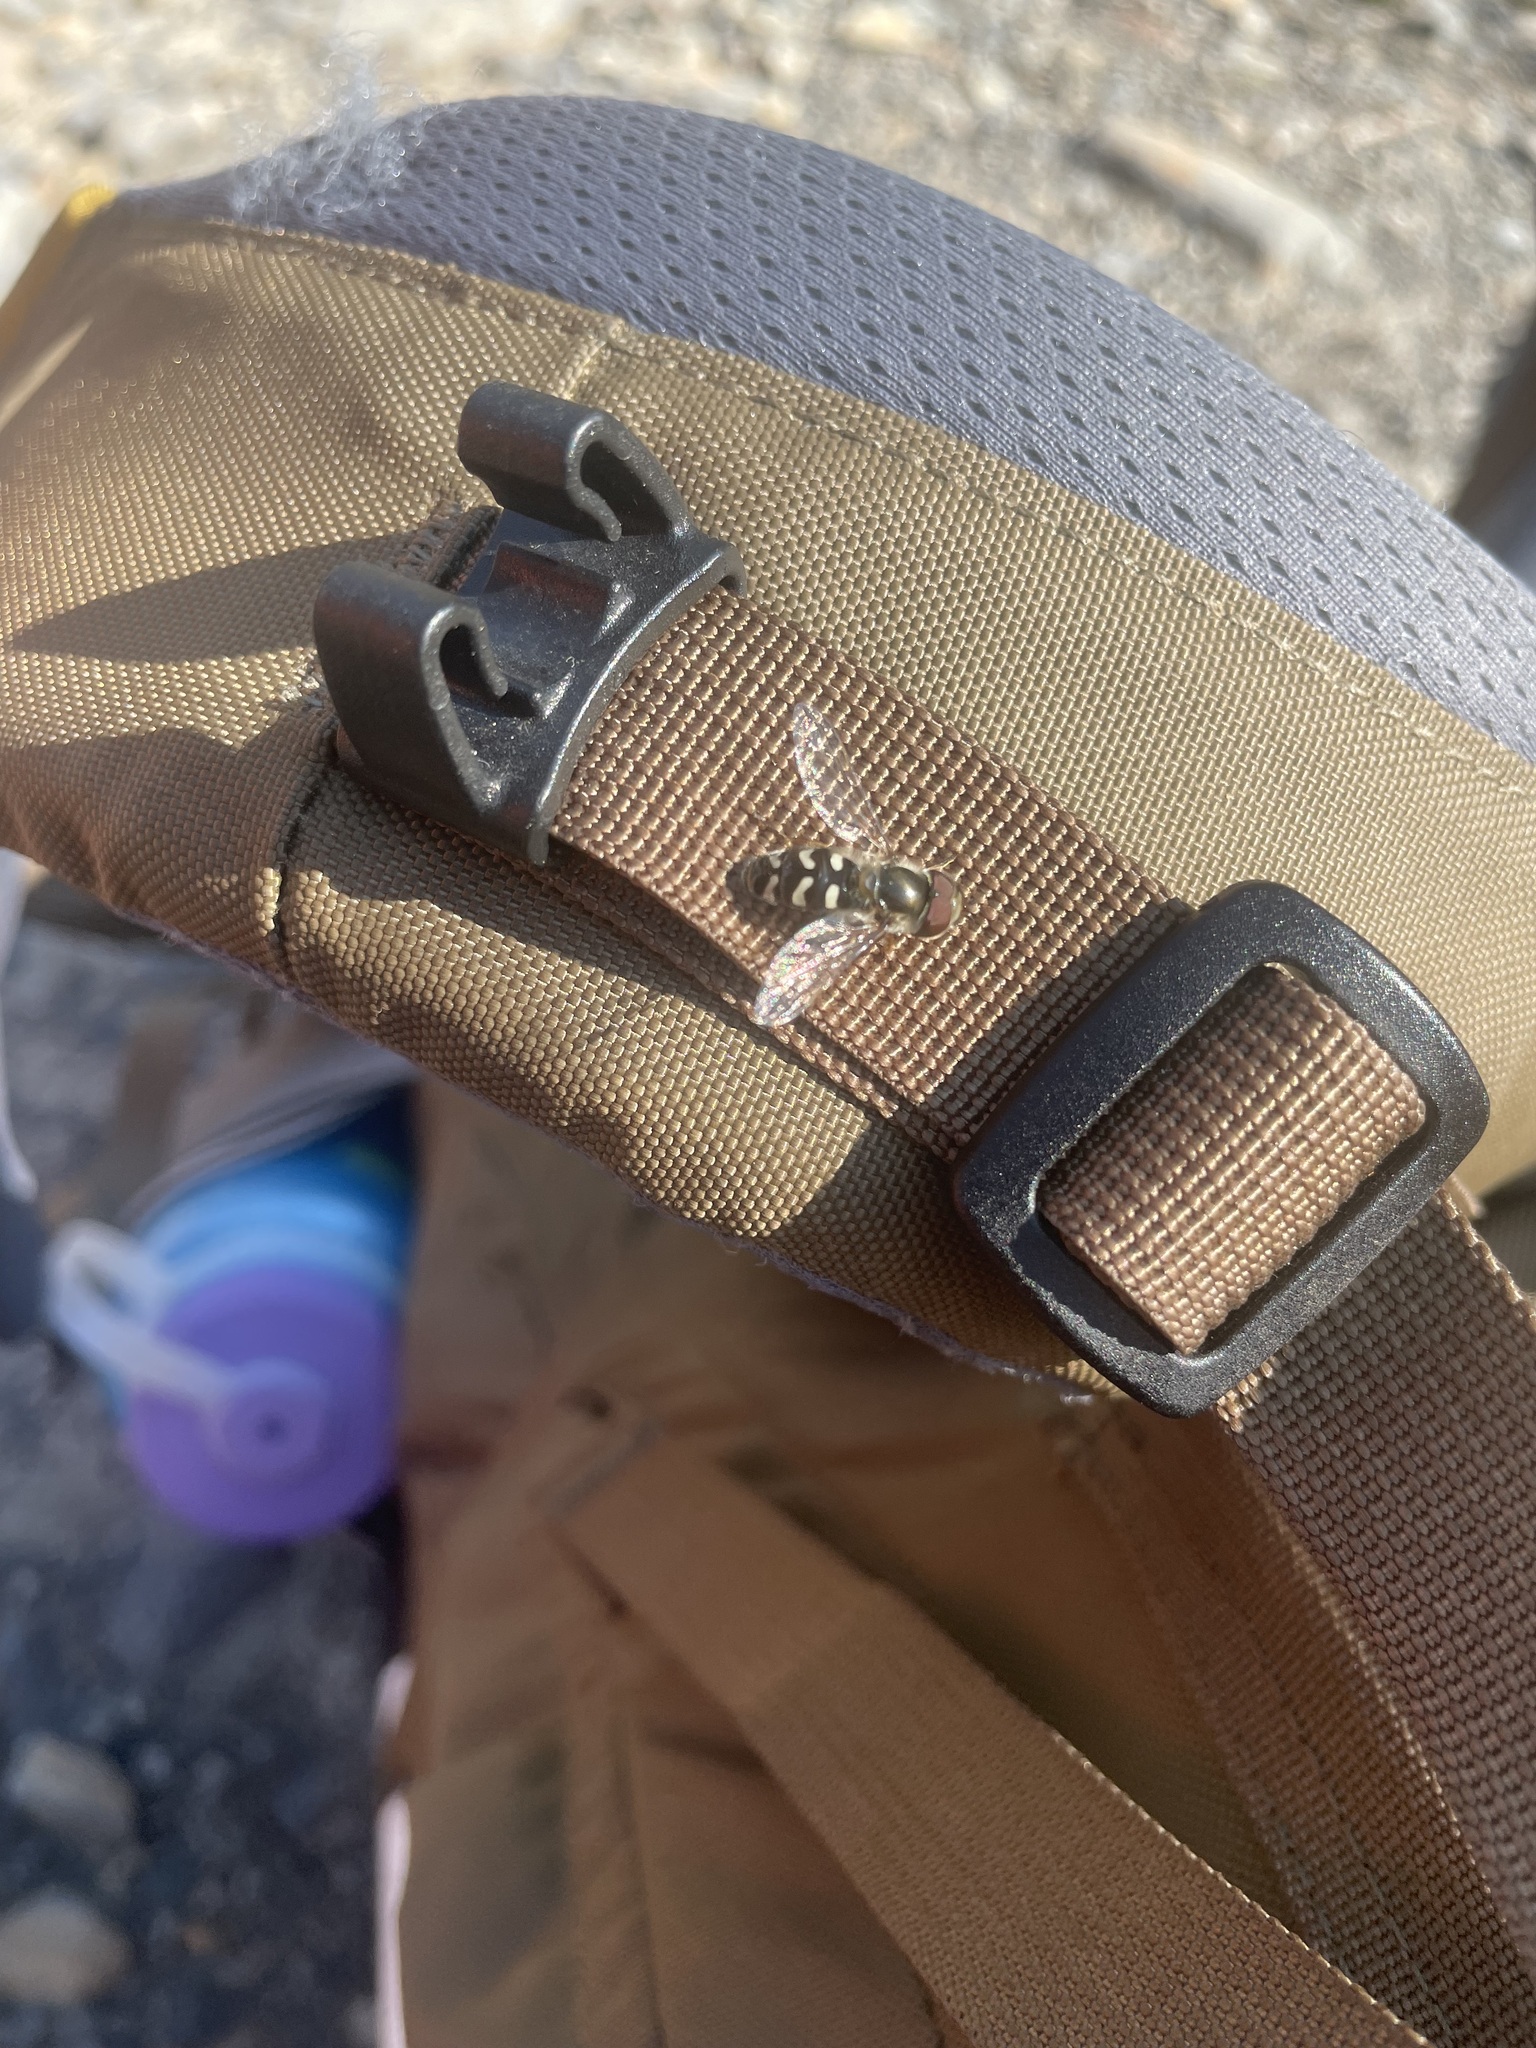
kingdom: Animalia
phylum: Arthropoda
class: Insecta
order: Diptera
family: Syrphidae
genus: Scaeva
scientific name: Scaeva affinis
